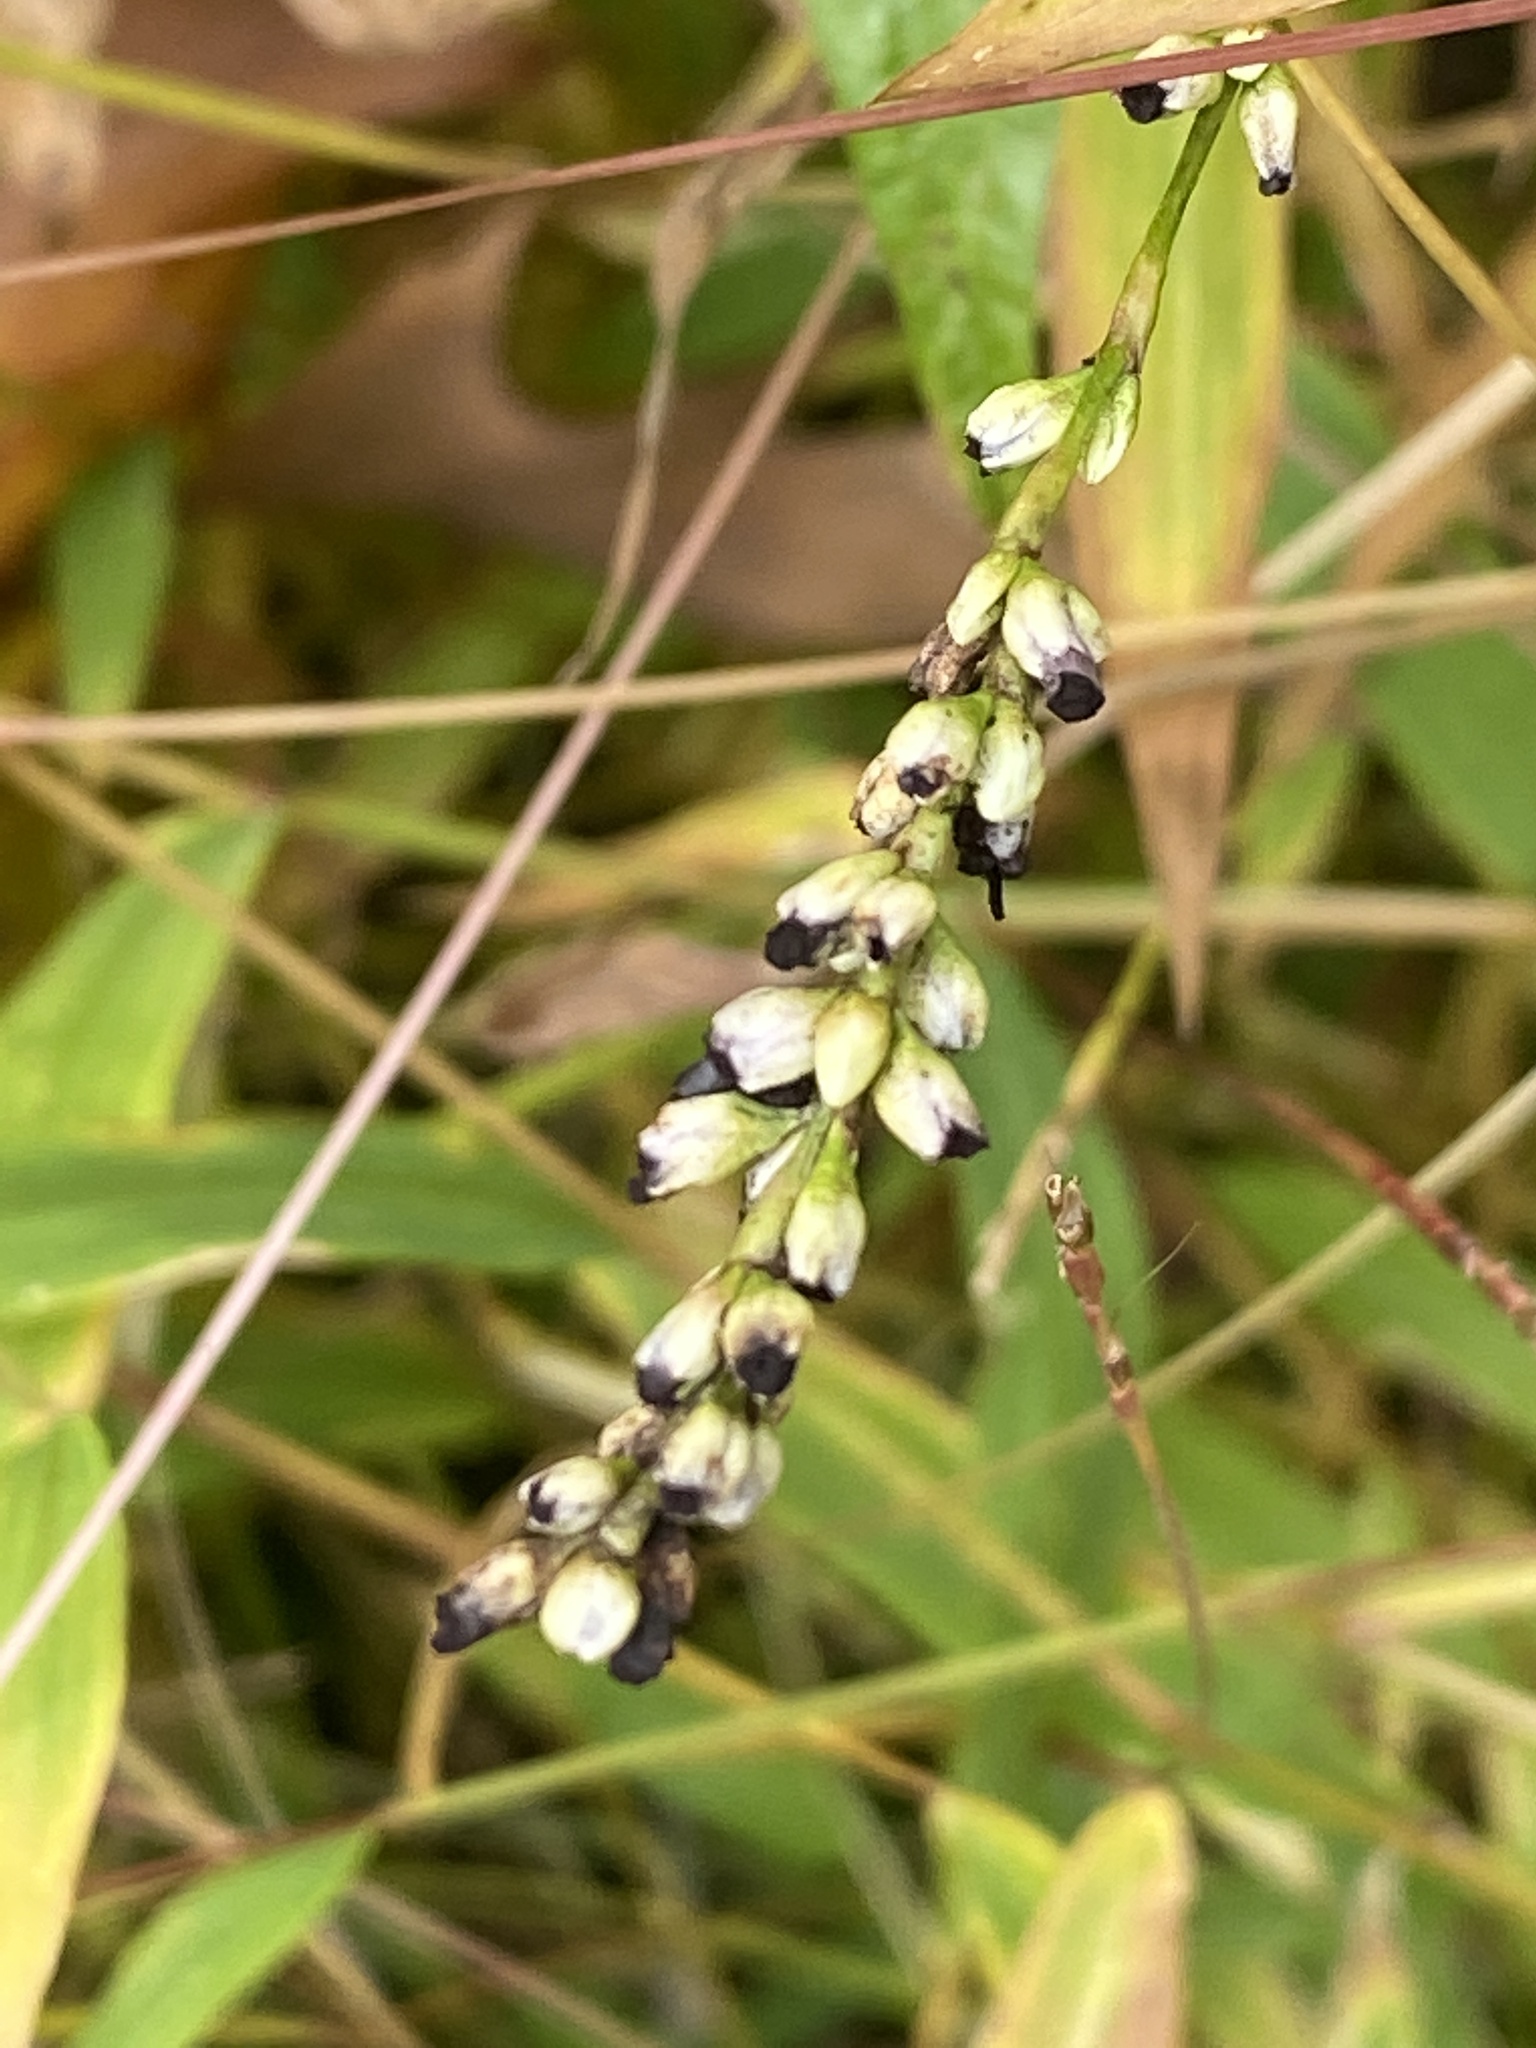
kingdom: Plantae
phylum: Tracheophyta
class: Magnoliopsida
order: Caryophyllales
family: Polygonaceae
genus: Persicaria
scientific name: Persicaria punctata
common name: Dotted smartweed
